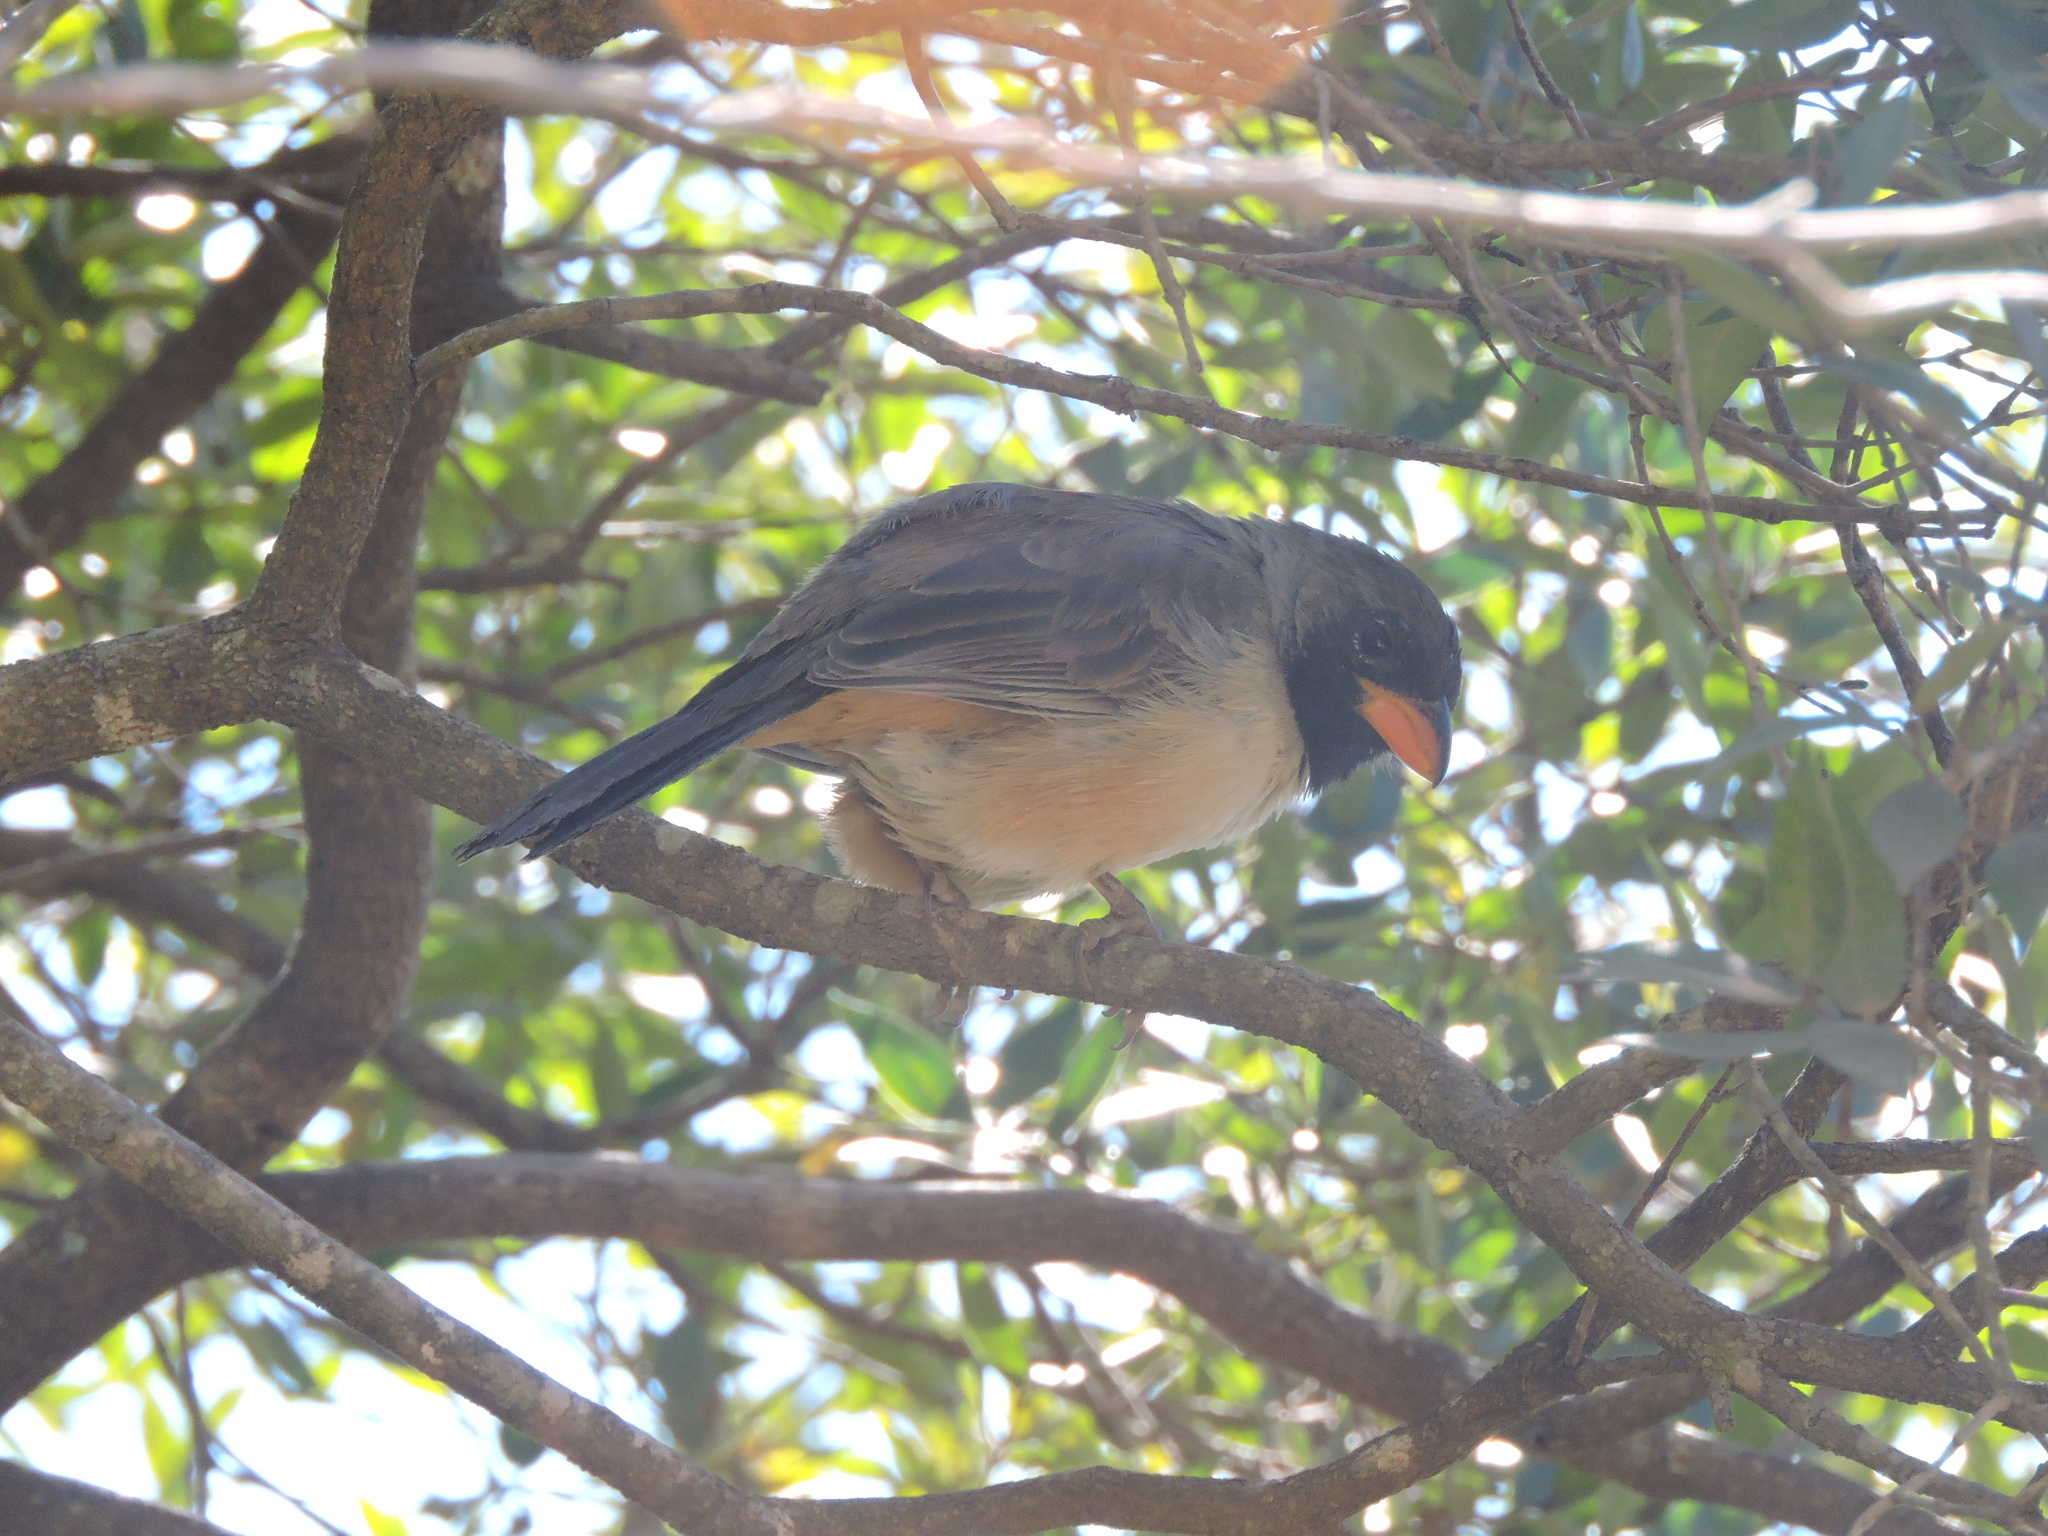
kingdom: Animalia
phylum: Chordata
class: Aves
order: Passeriformes
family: Thraupidae
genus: Saltatricula
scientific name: Saltatricula atricollis
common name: Black-throated saltator
